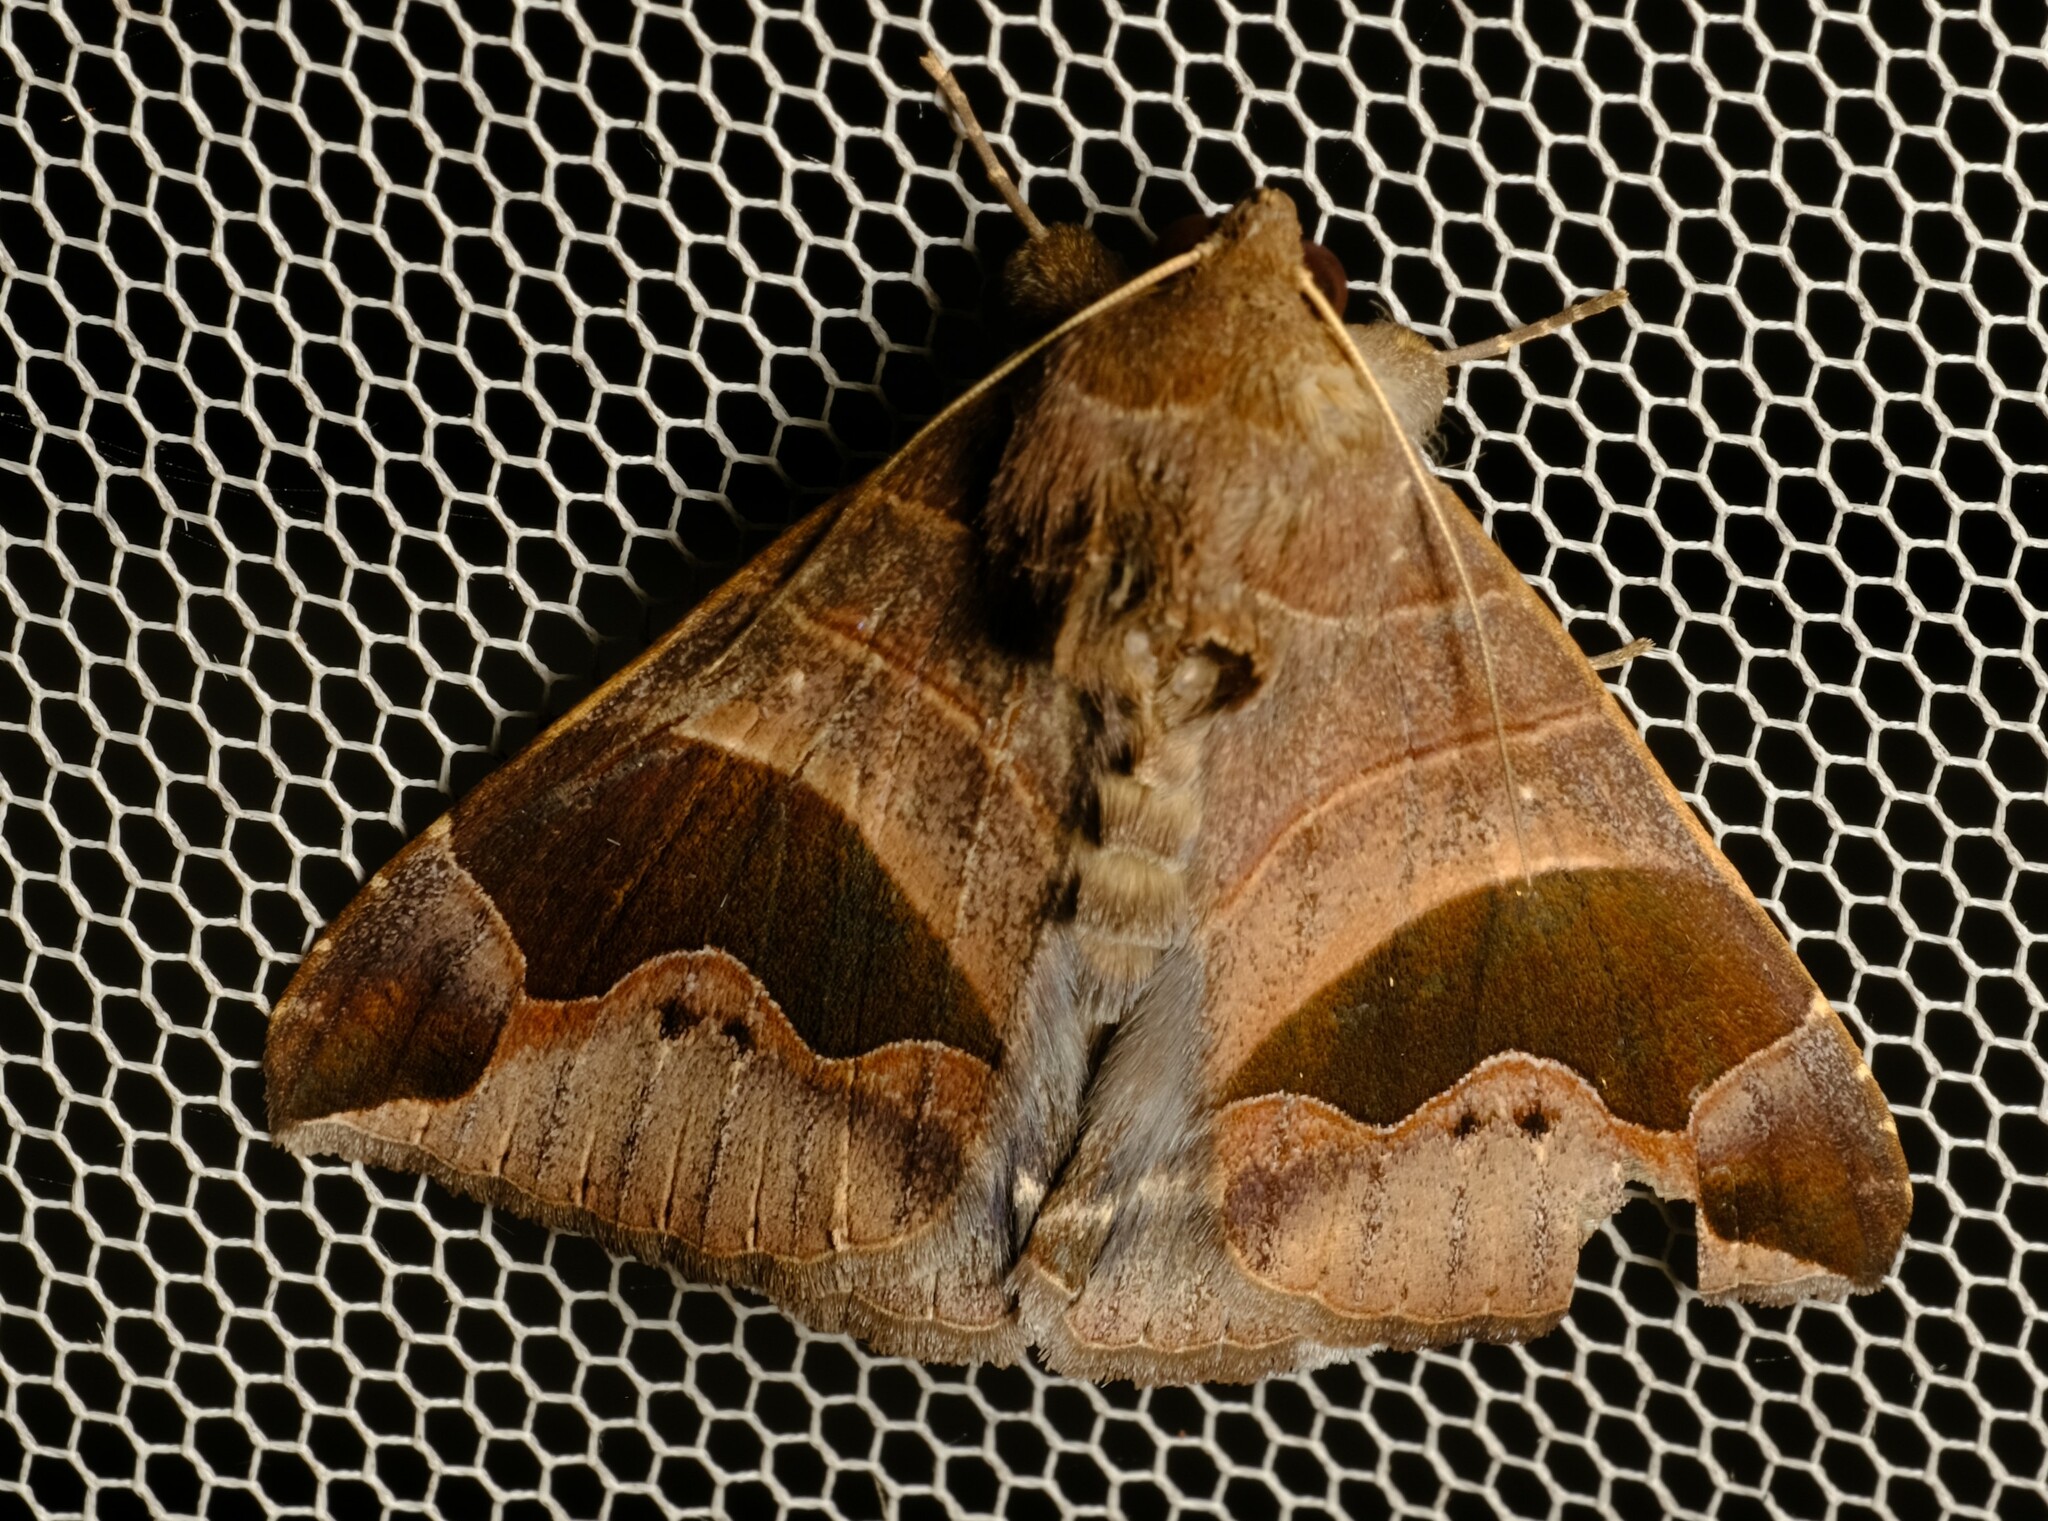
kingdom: Animalia
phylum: Arthropoda
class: Insecta
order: Lepidoptera
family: Erebidae
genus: Bastilla
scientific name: Bastilla solomonensis
